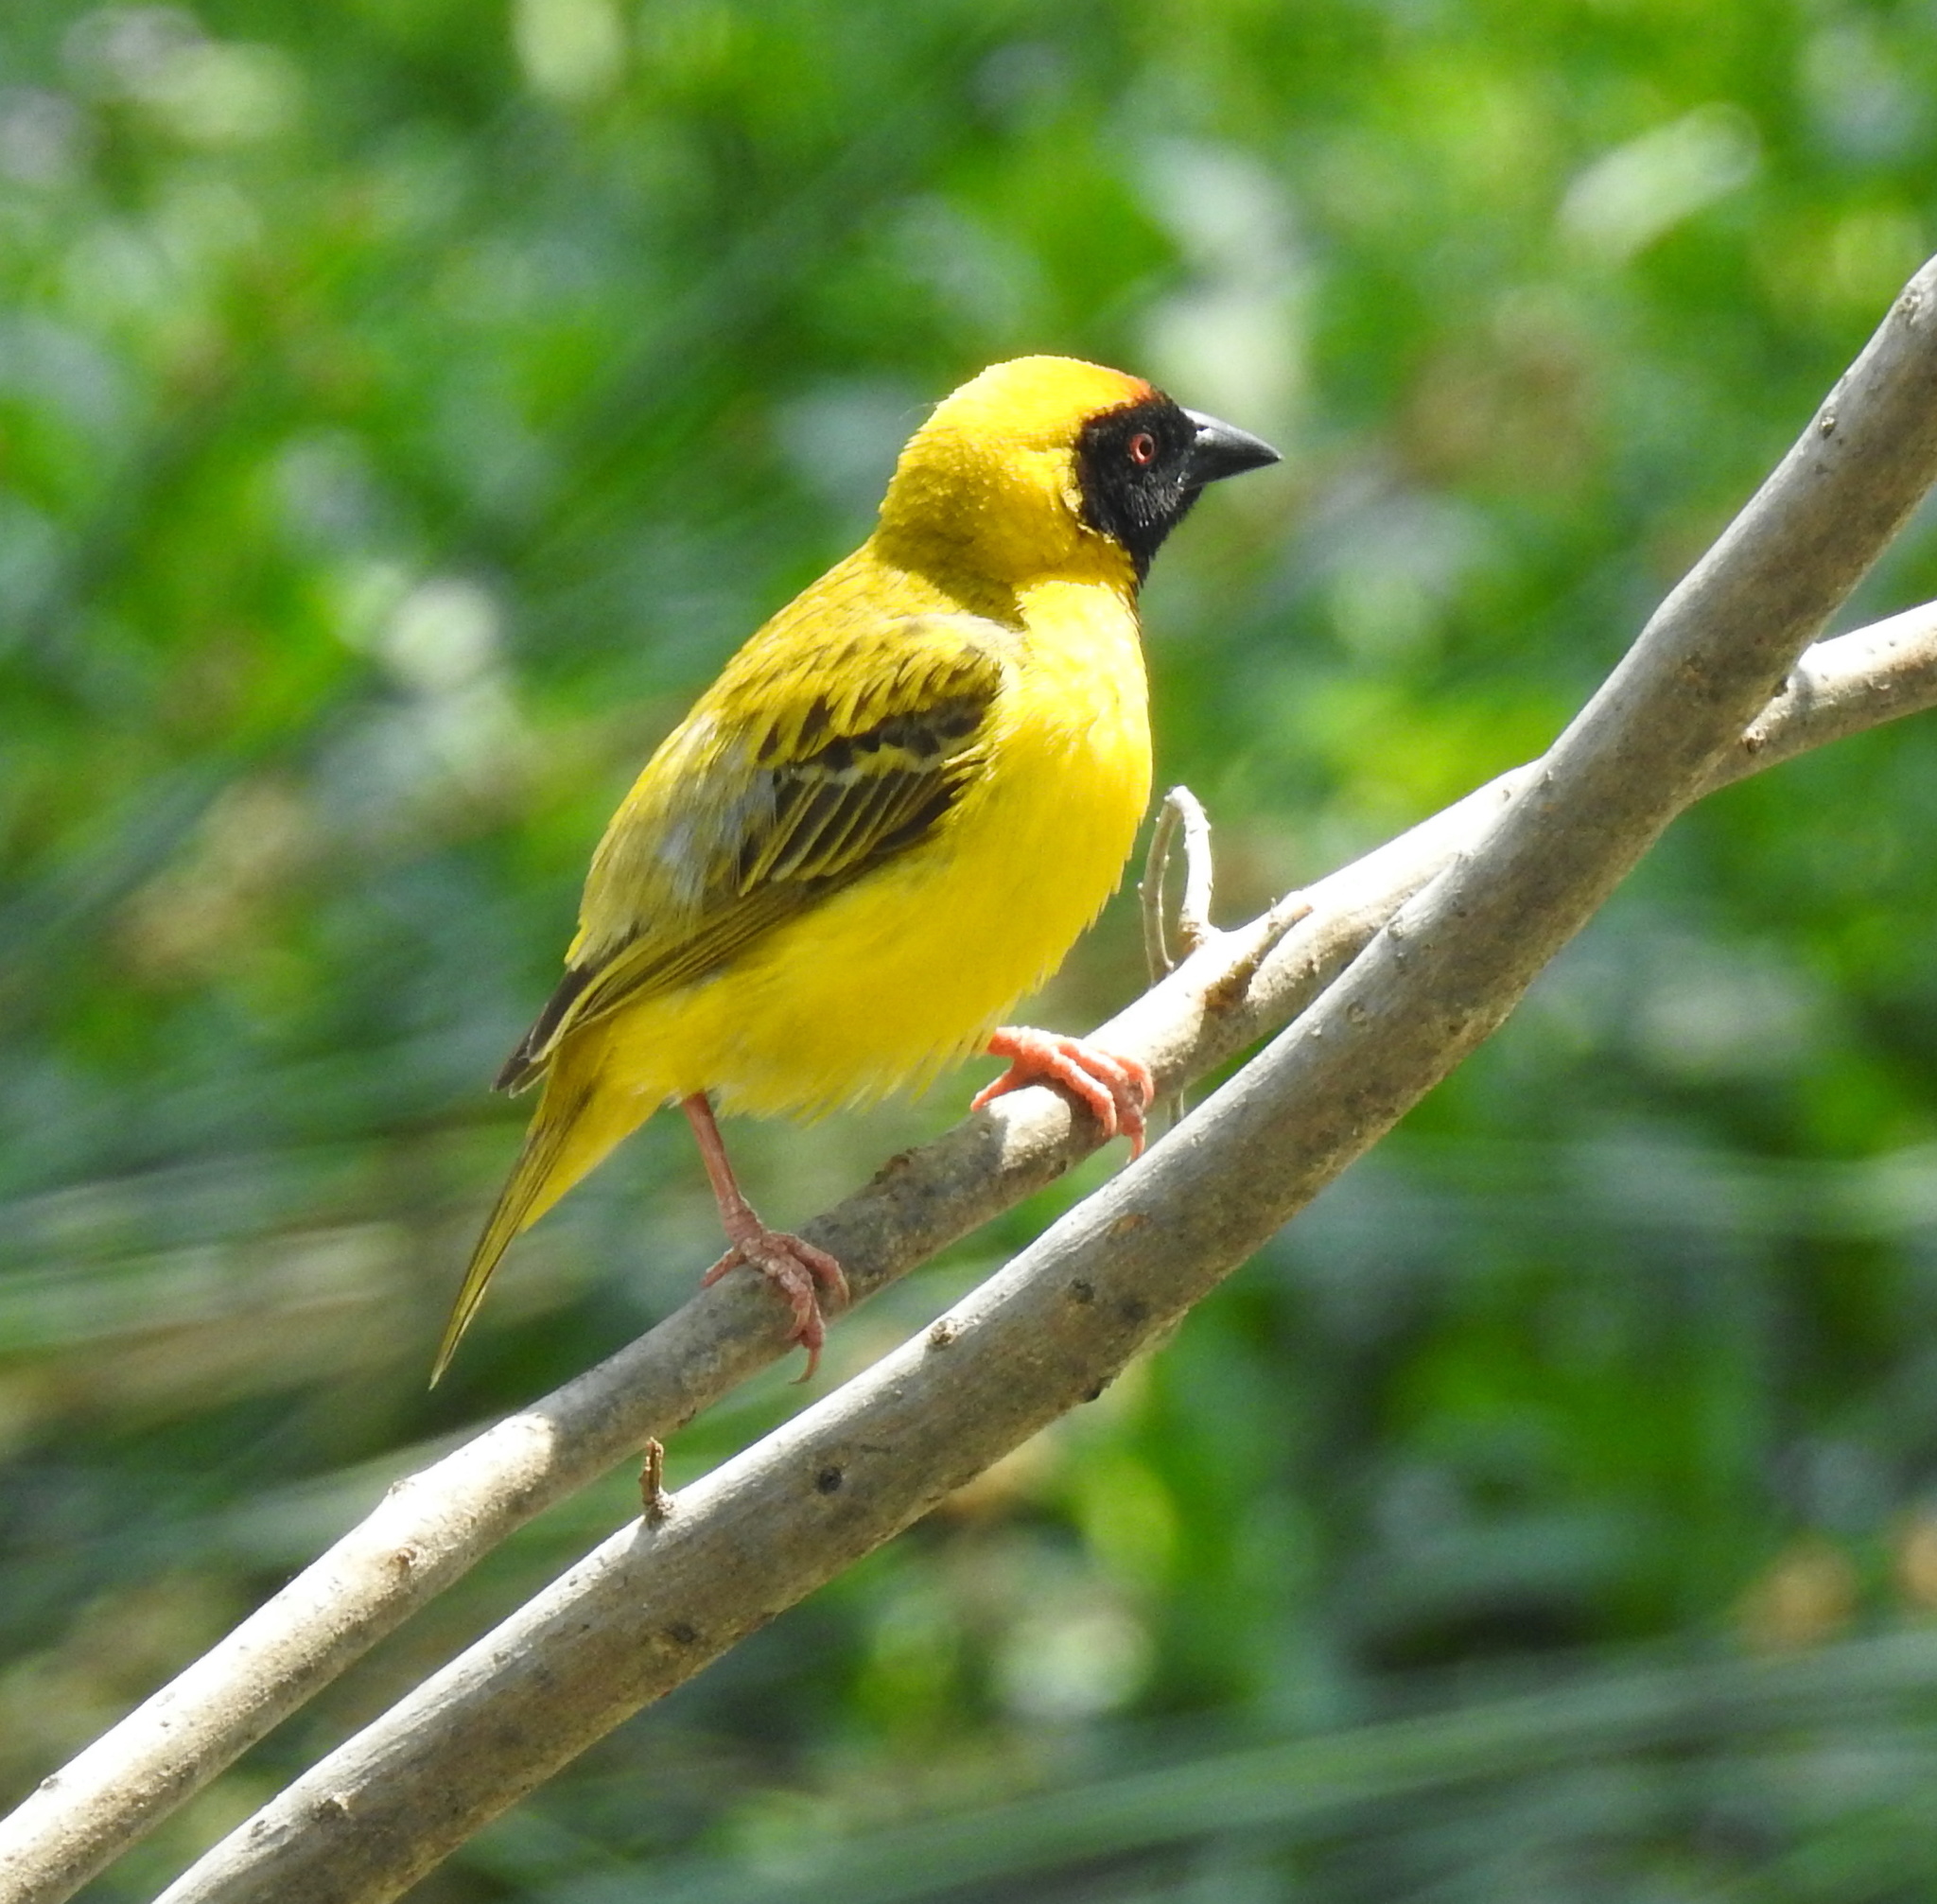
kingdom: Animalia
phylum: Chordata
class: Aves
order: Passeriformes
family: Ploceidae
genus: Ploceus
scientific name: Ploceus velatus
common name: Southern masked weaver
